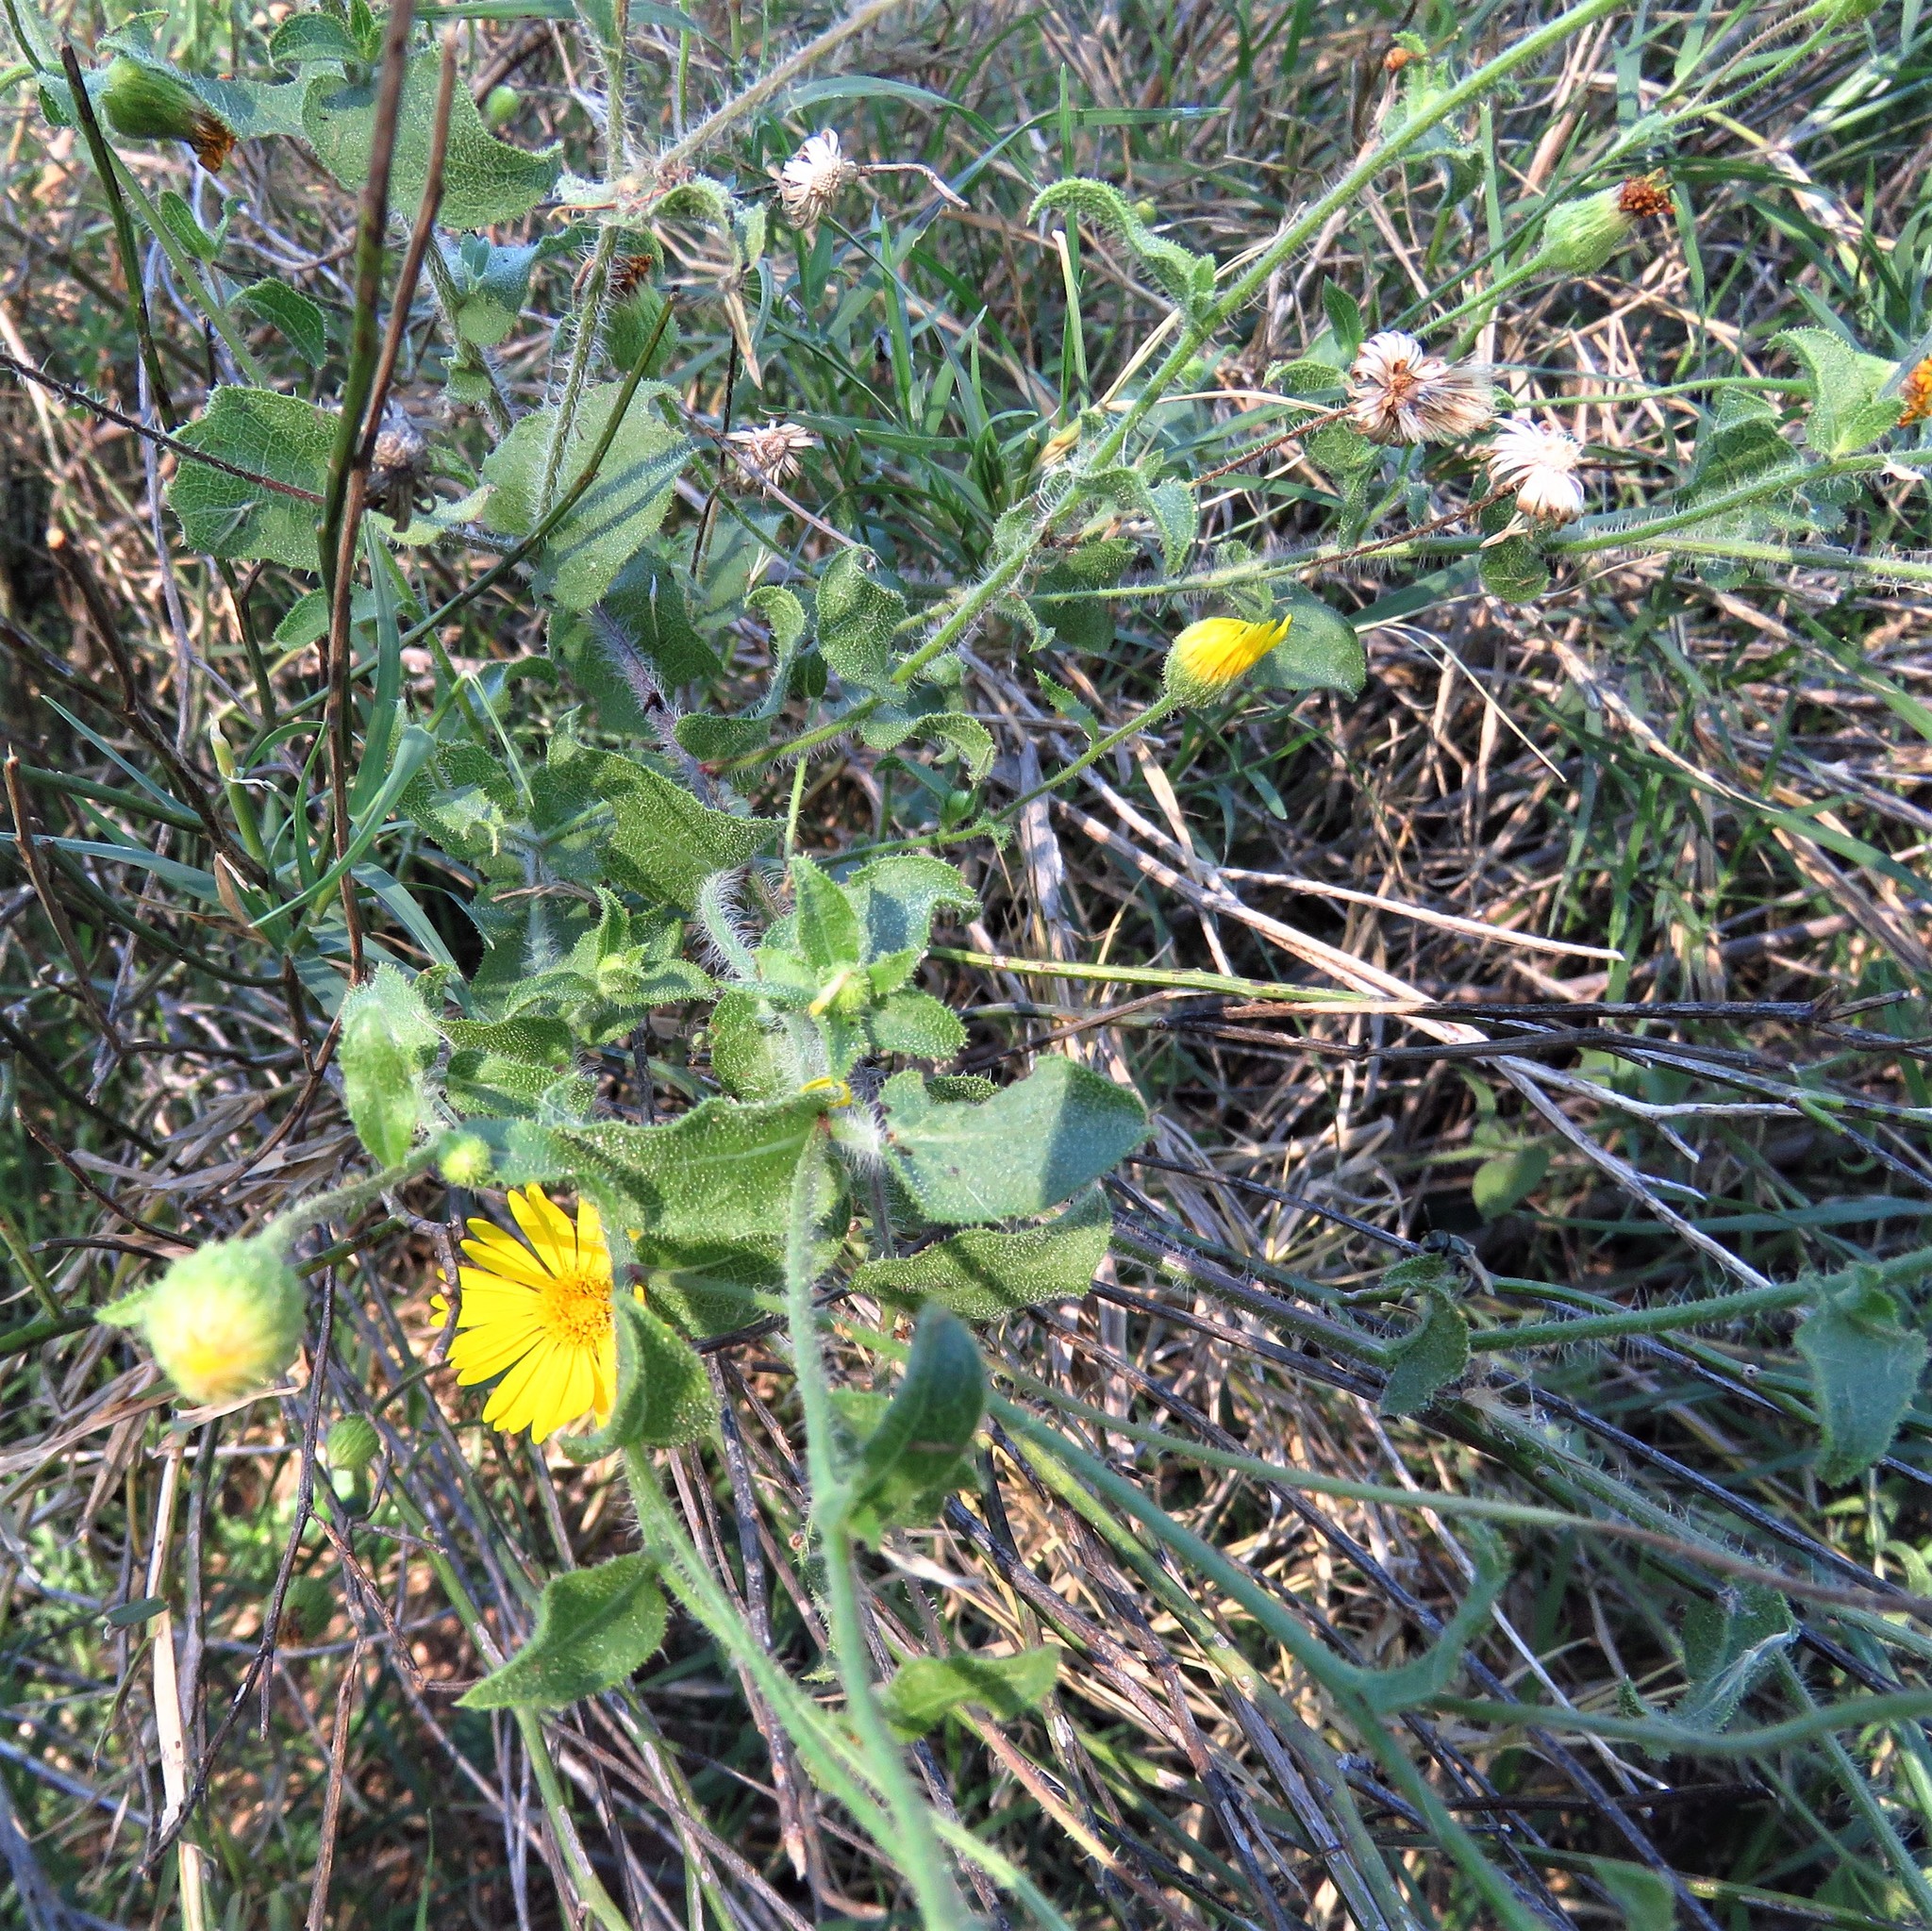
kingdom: Plantae
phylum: Tracheophyta
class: Magnoliopsida
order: Asterales
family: Asteraceae
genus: Heterotheca
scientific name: Heterotheca subaxillaris
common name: Camphorweed
